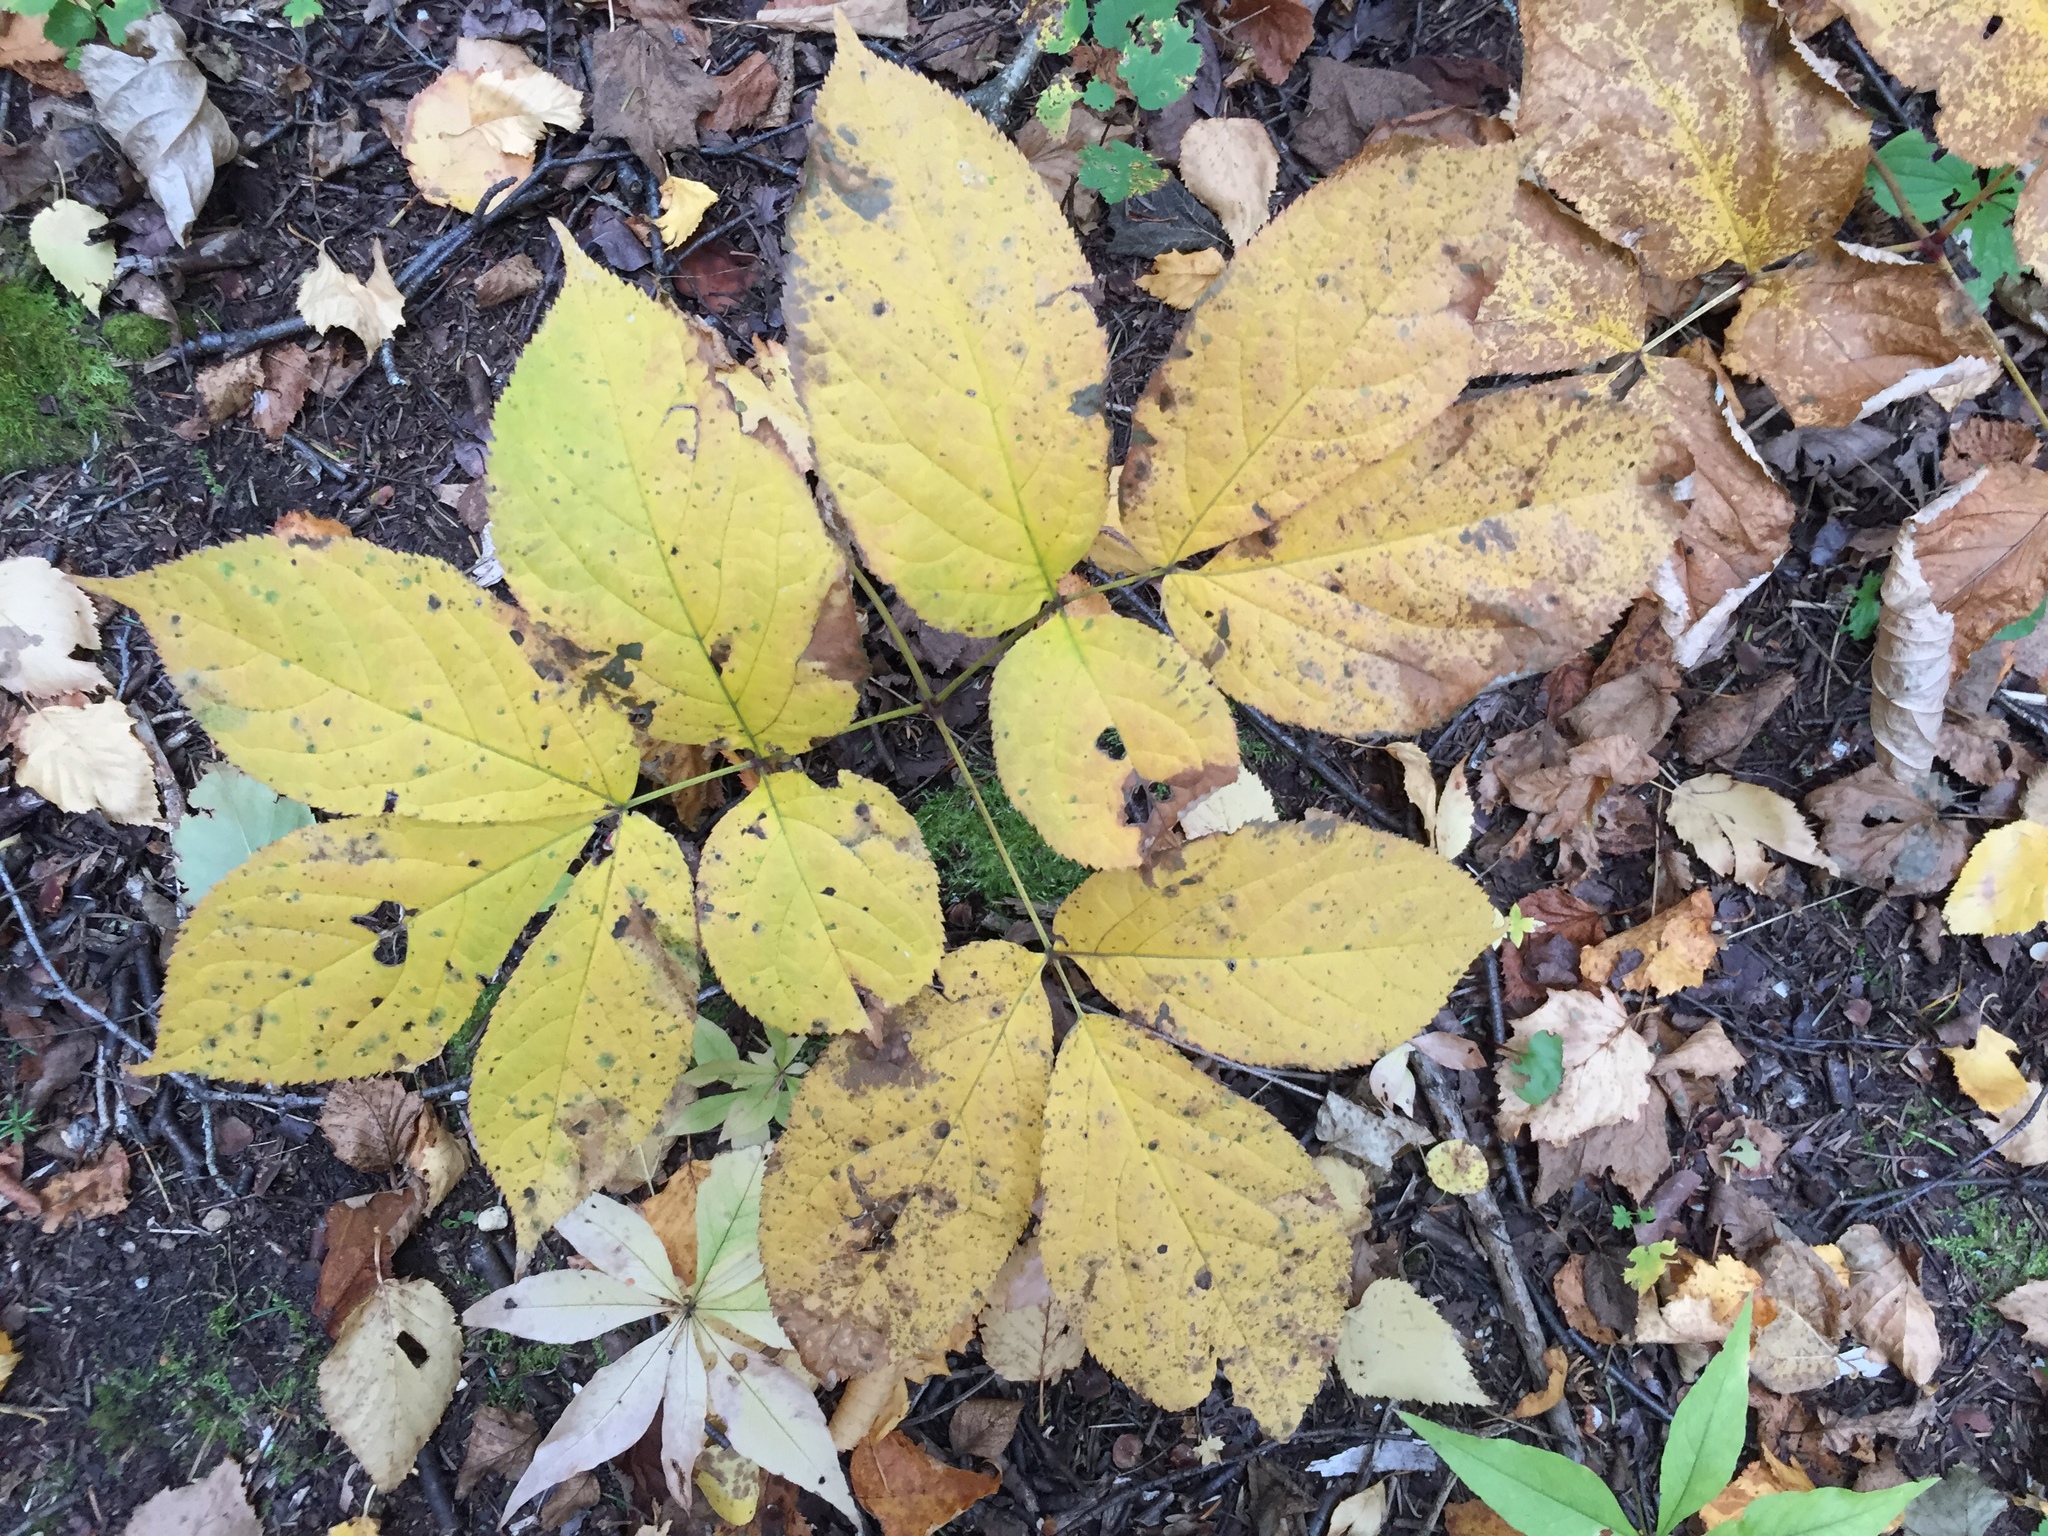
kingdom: Plantae
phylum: Tracheophyta
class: Magnoliopsida
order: Apiales
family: Araliaceae
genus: Aralia
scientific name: Aralia nudicaulis
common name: Wild sarsaparilla
